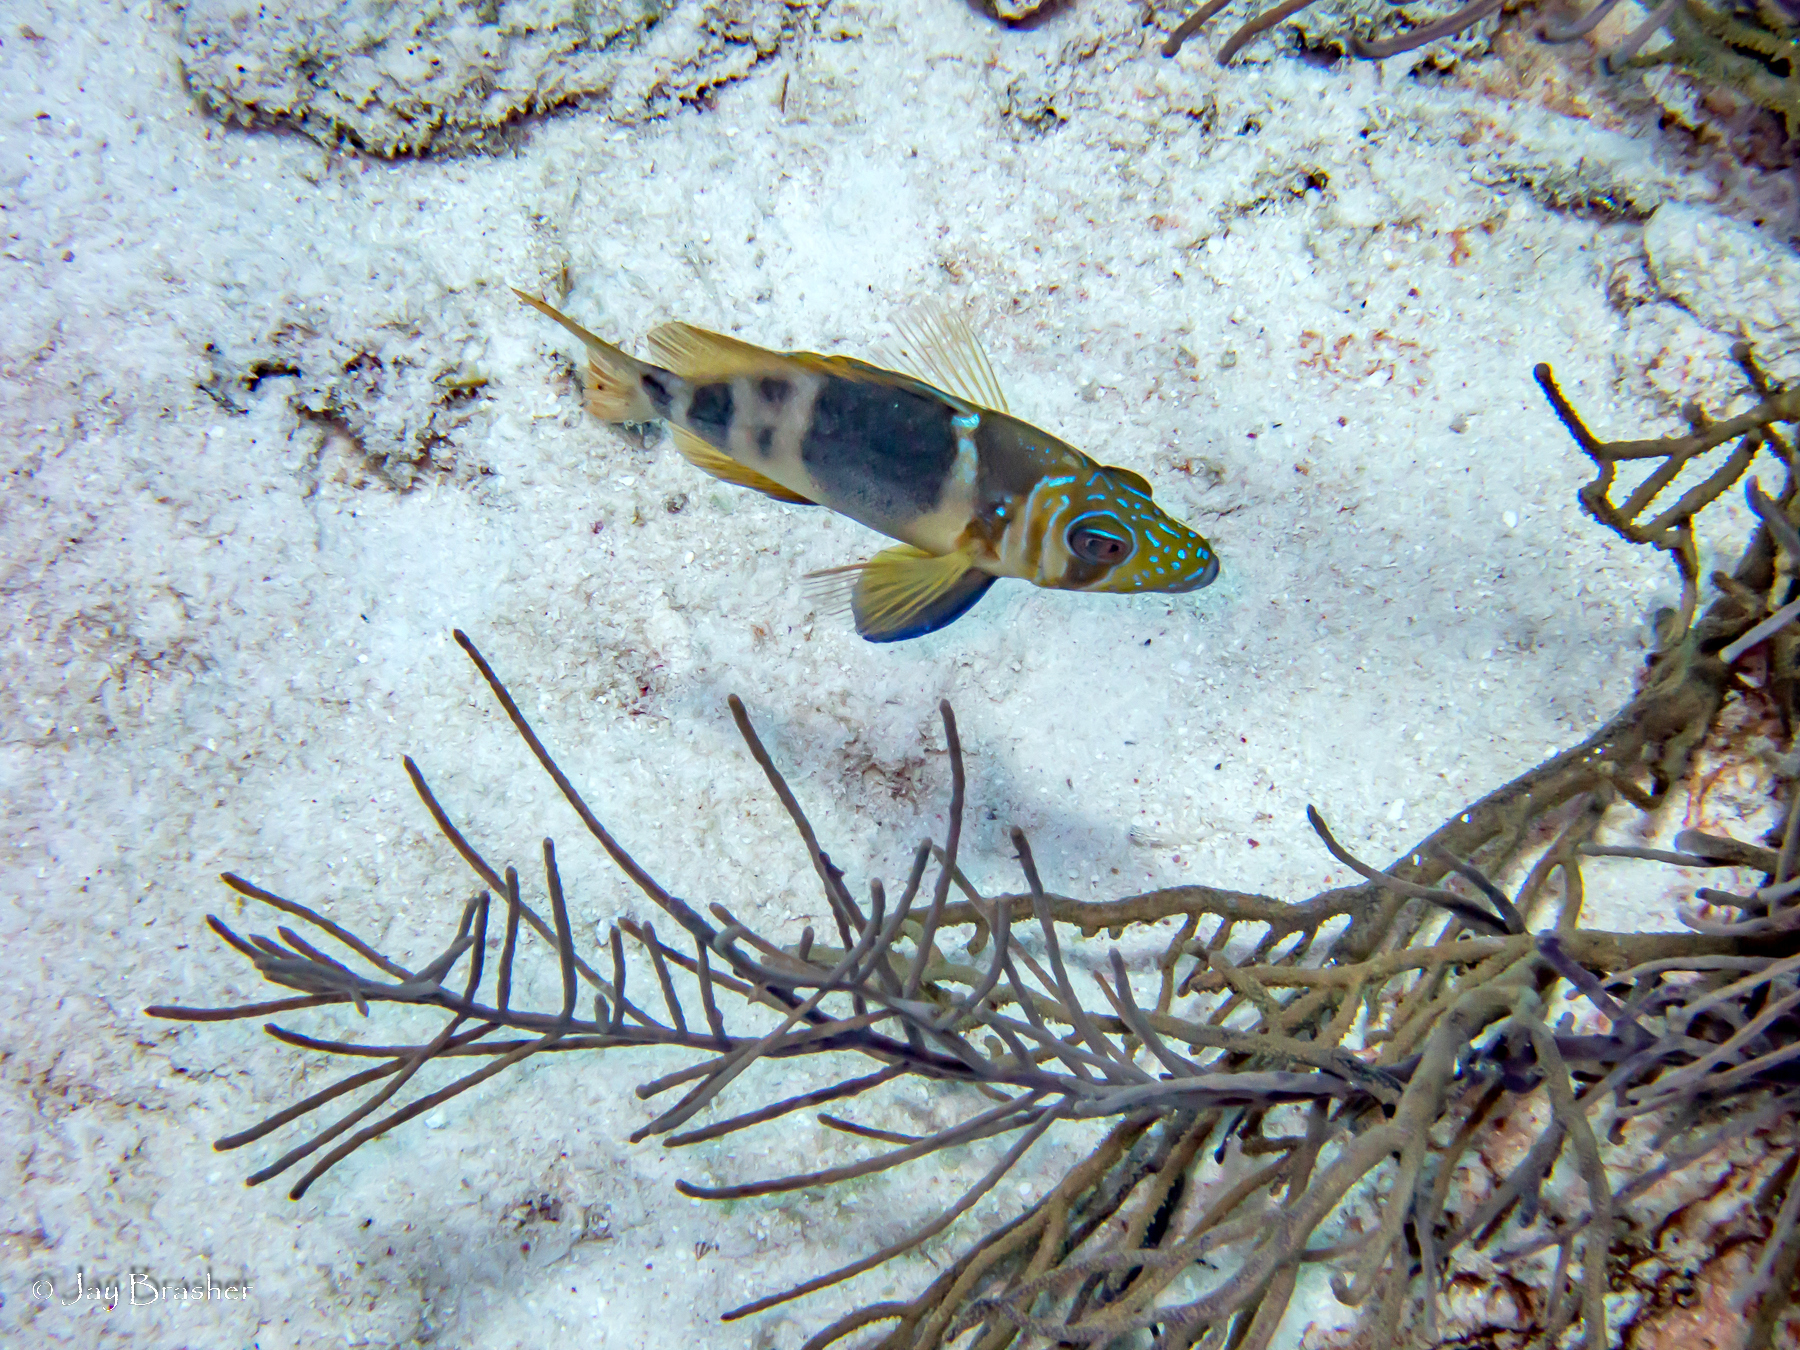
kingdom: Animalia
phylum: Chordata
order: Perciformes
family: Serranidae
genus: Hypoplectrus
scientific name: Hypoplectrus puella
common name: Barred hamlet
